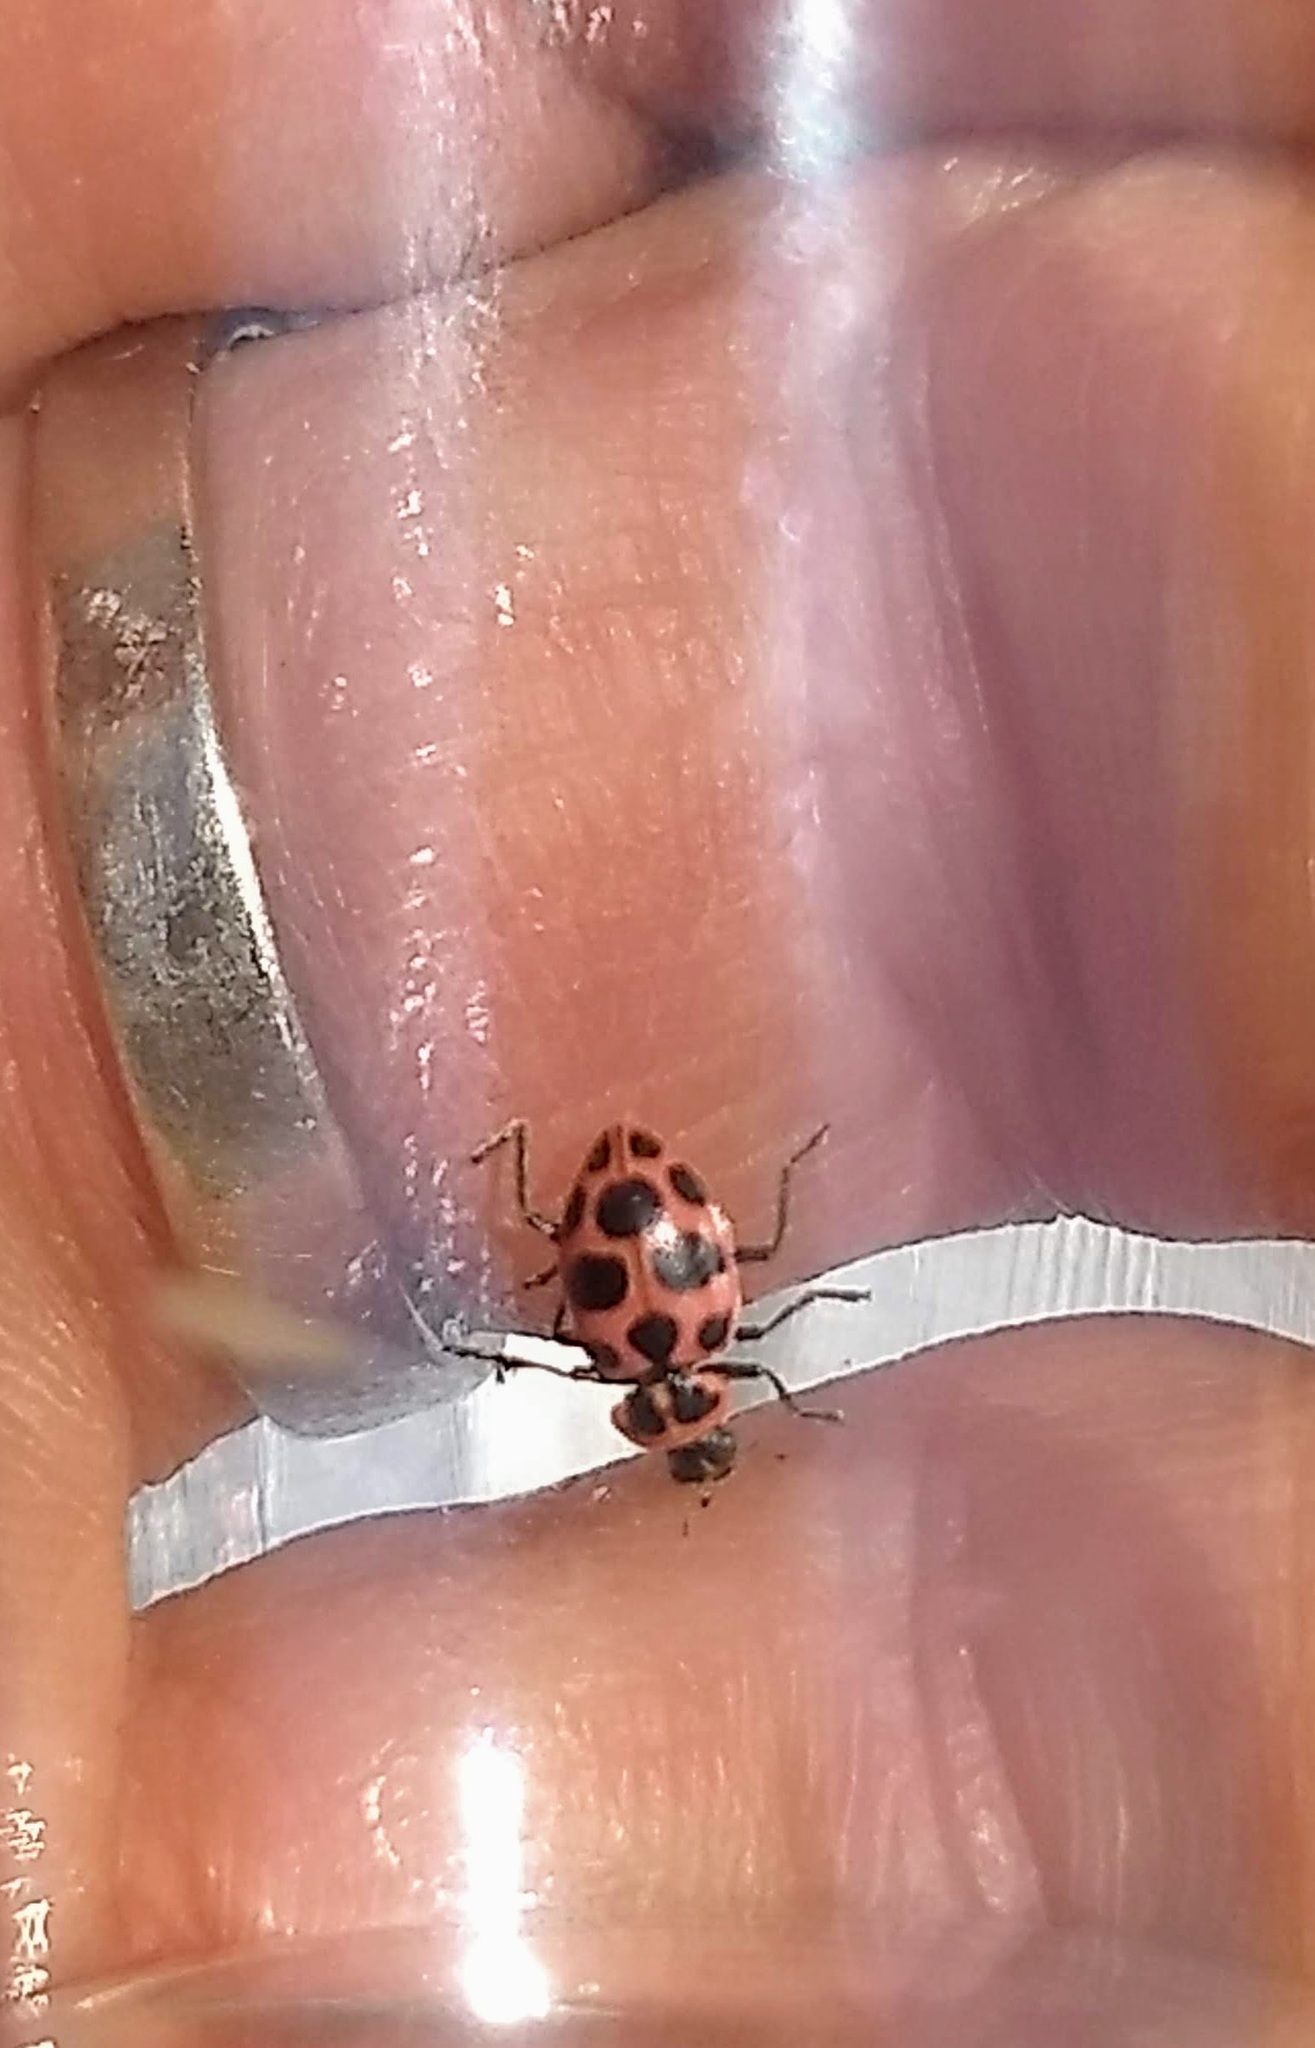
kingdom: Animalia
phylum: Arthropoda
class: Insecta
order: Coleoptera
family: Coccinellidae
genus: Coleomegilla
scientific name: Coleomegilla maculata
